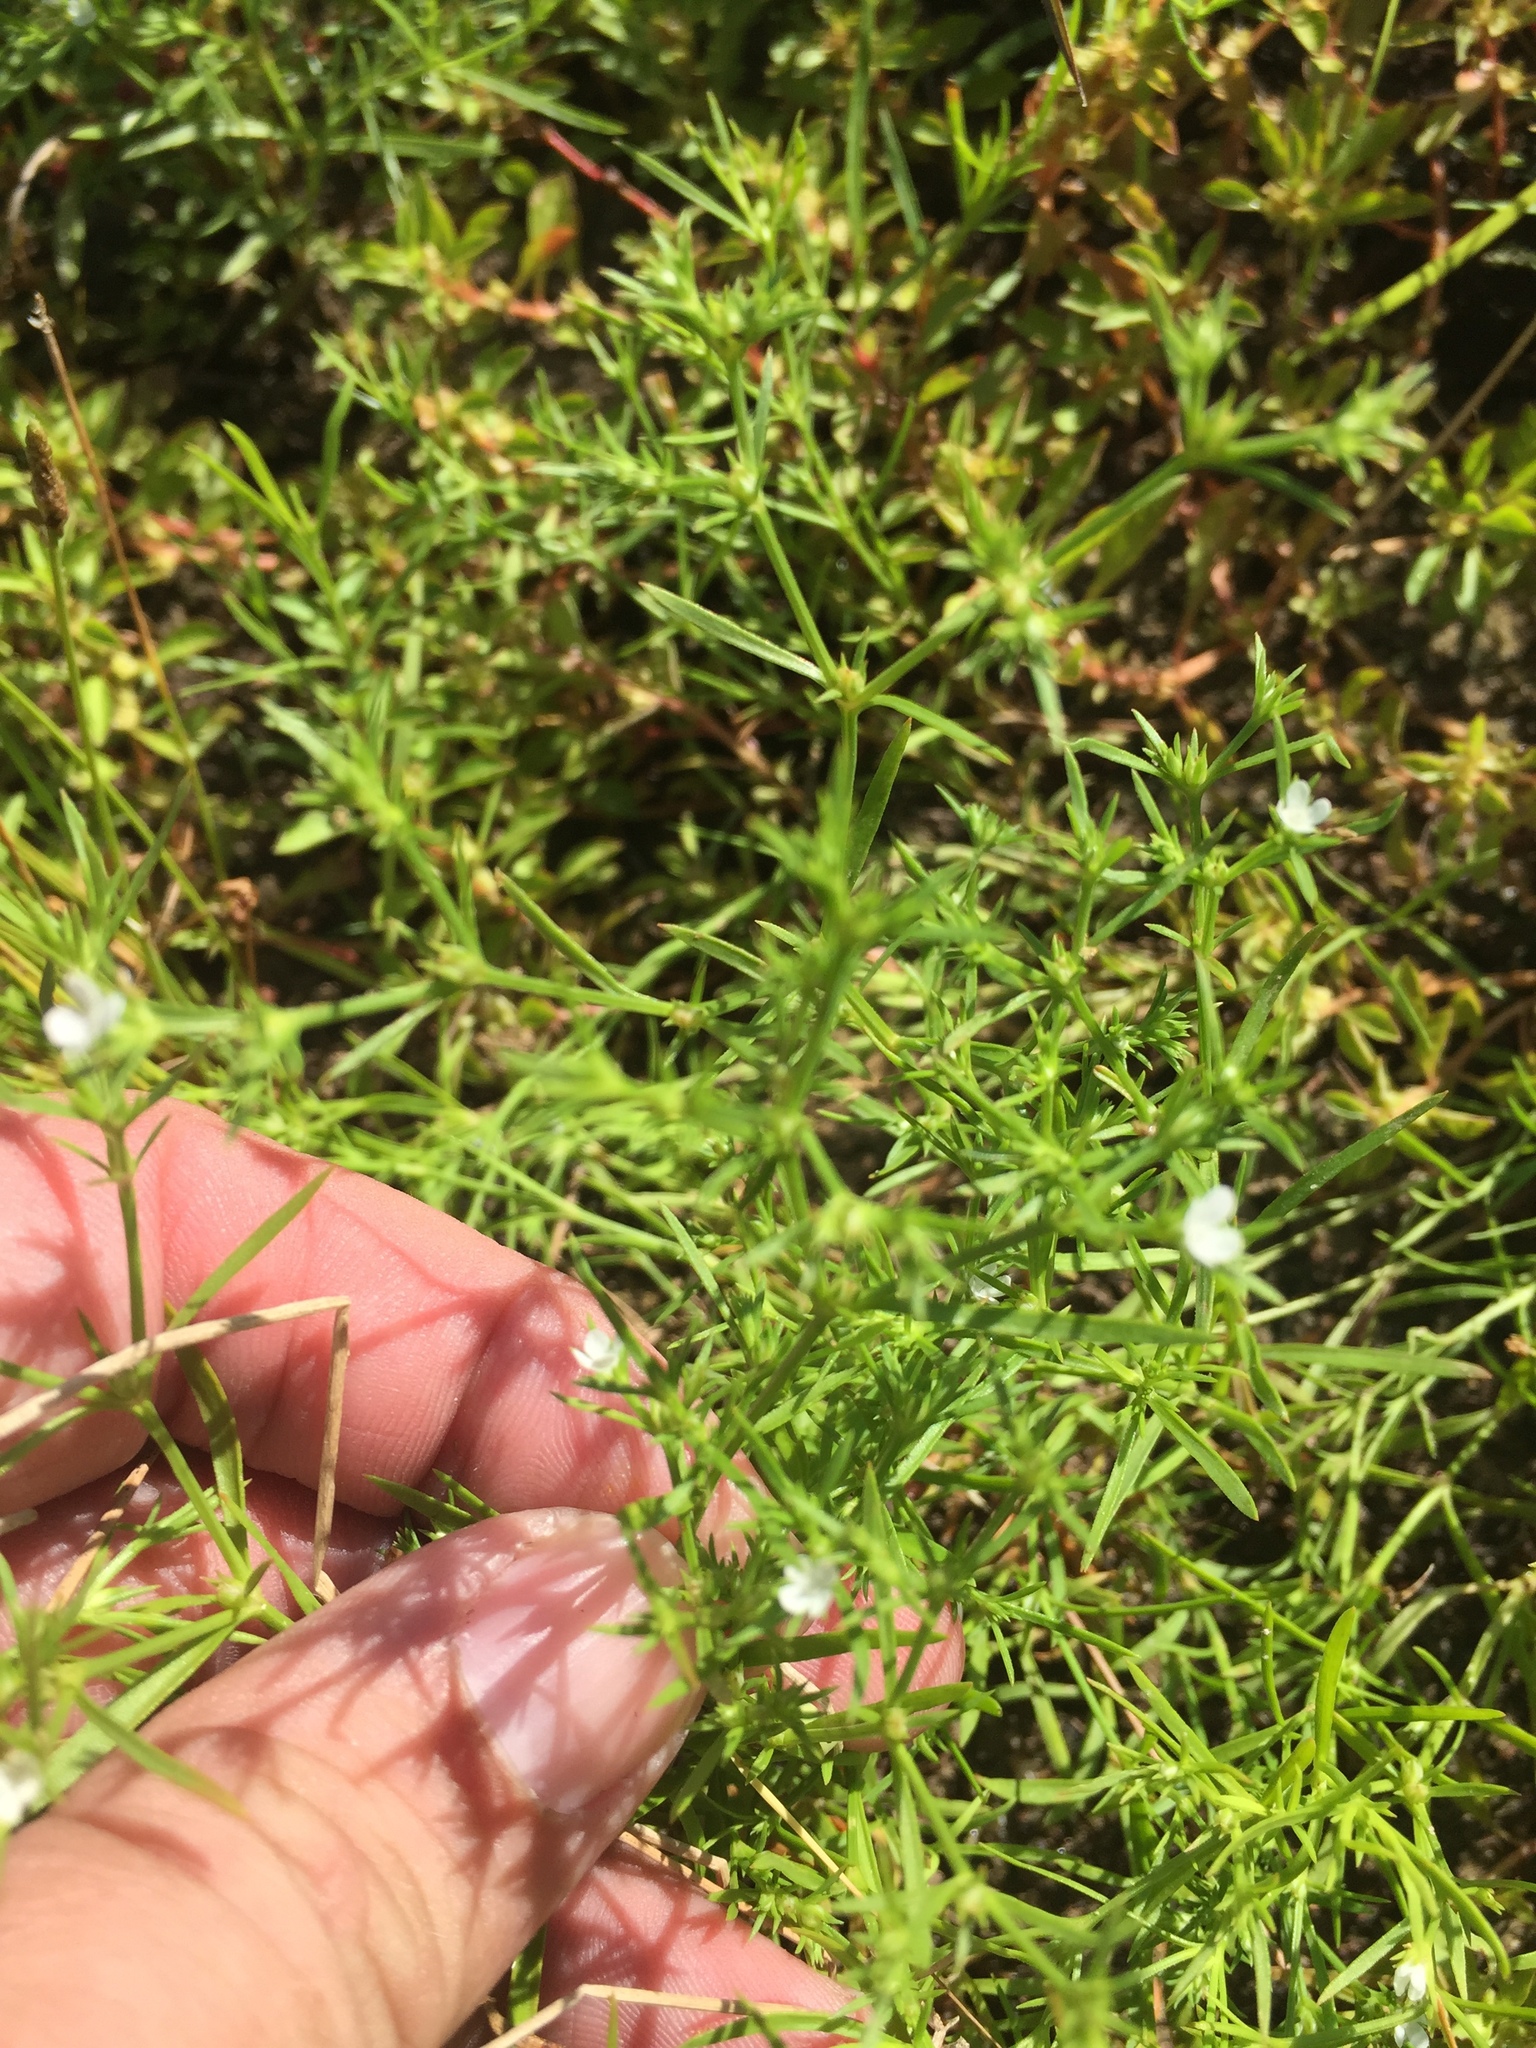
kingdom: Plantae
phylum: Tracheophyta
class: Magnoliopsida
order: Lamiales
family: Tetrachondraceae
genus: Polypremum
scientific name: Polypremum procumbens
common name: Juniper-leaf
